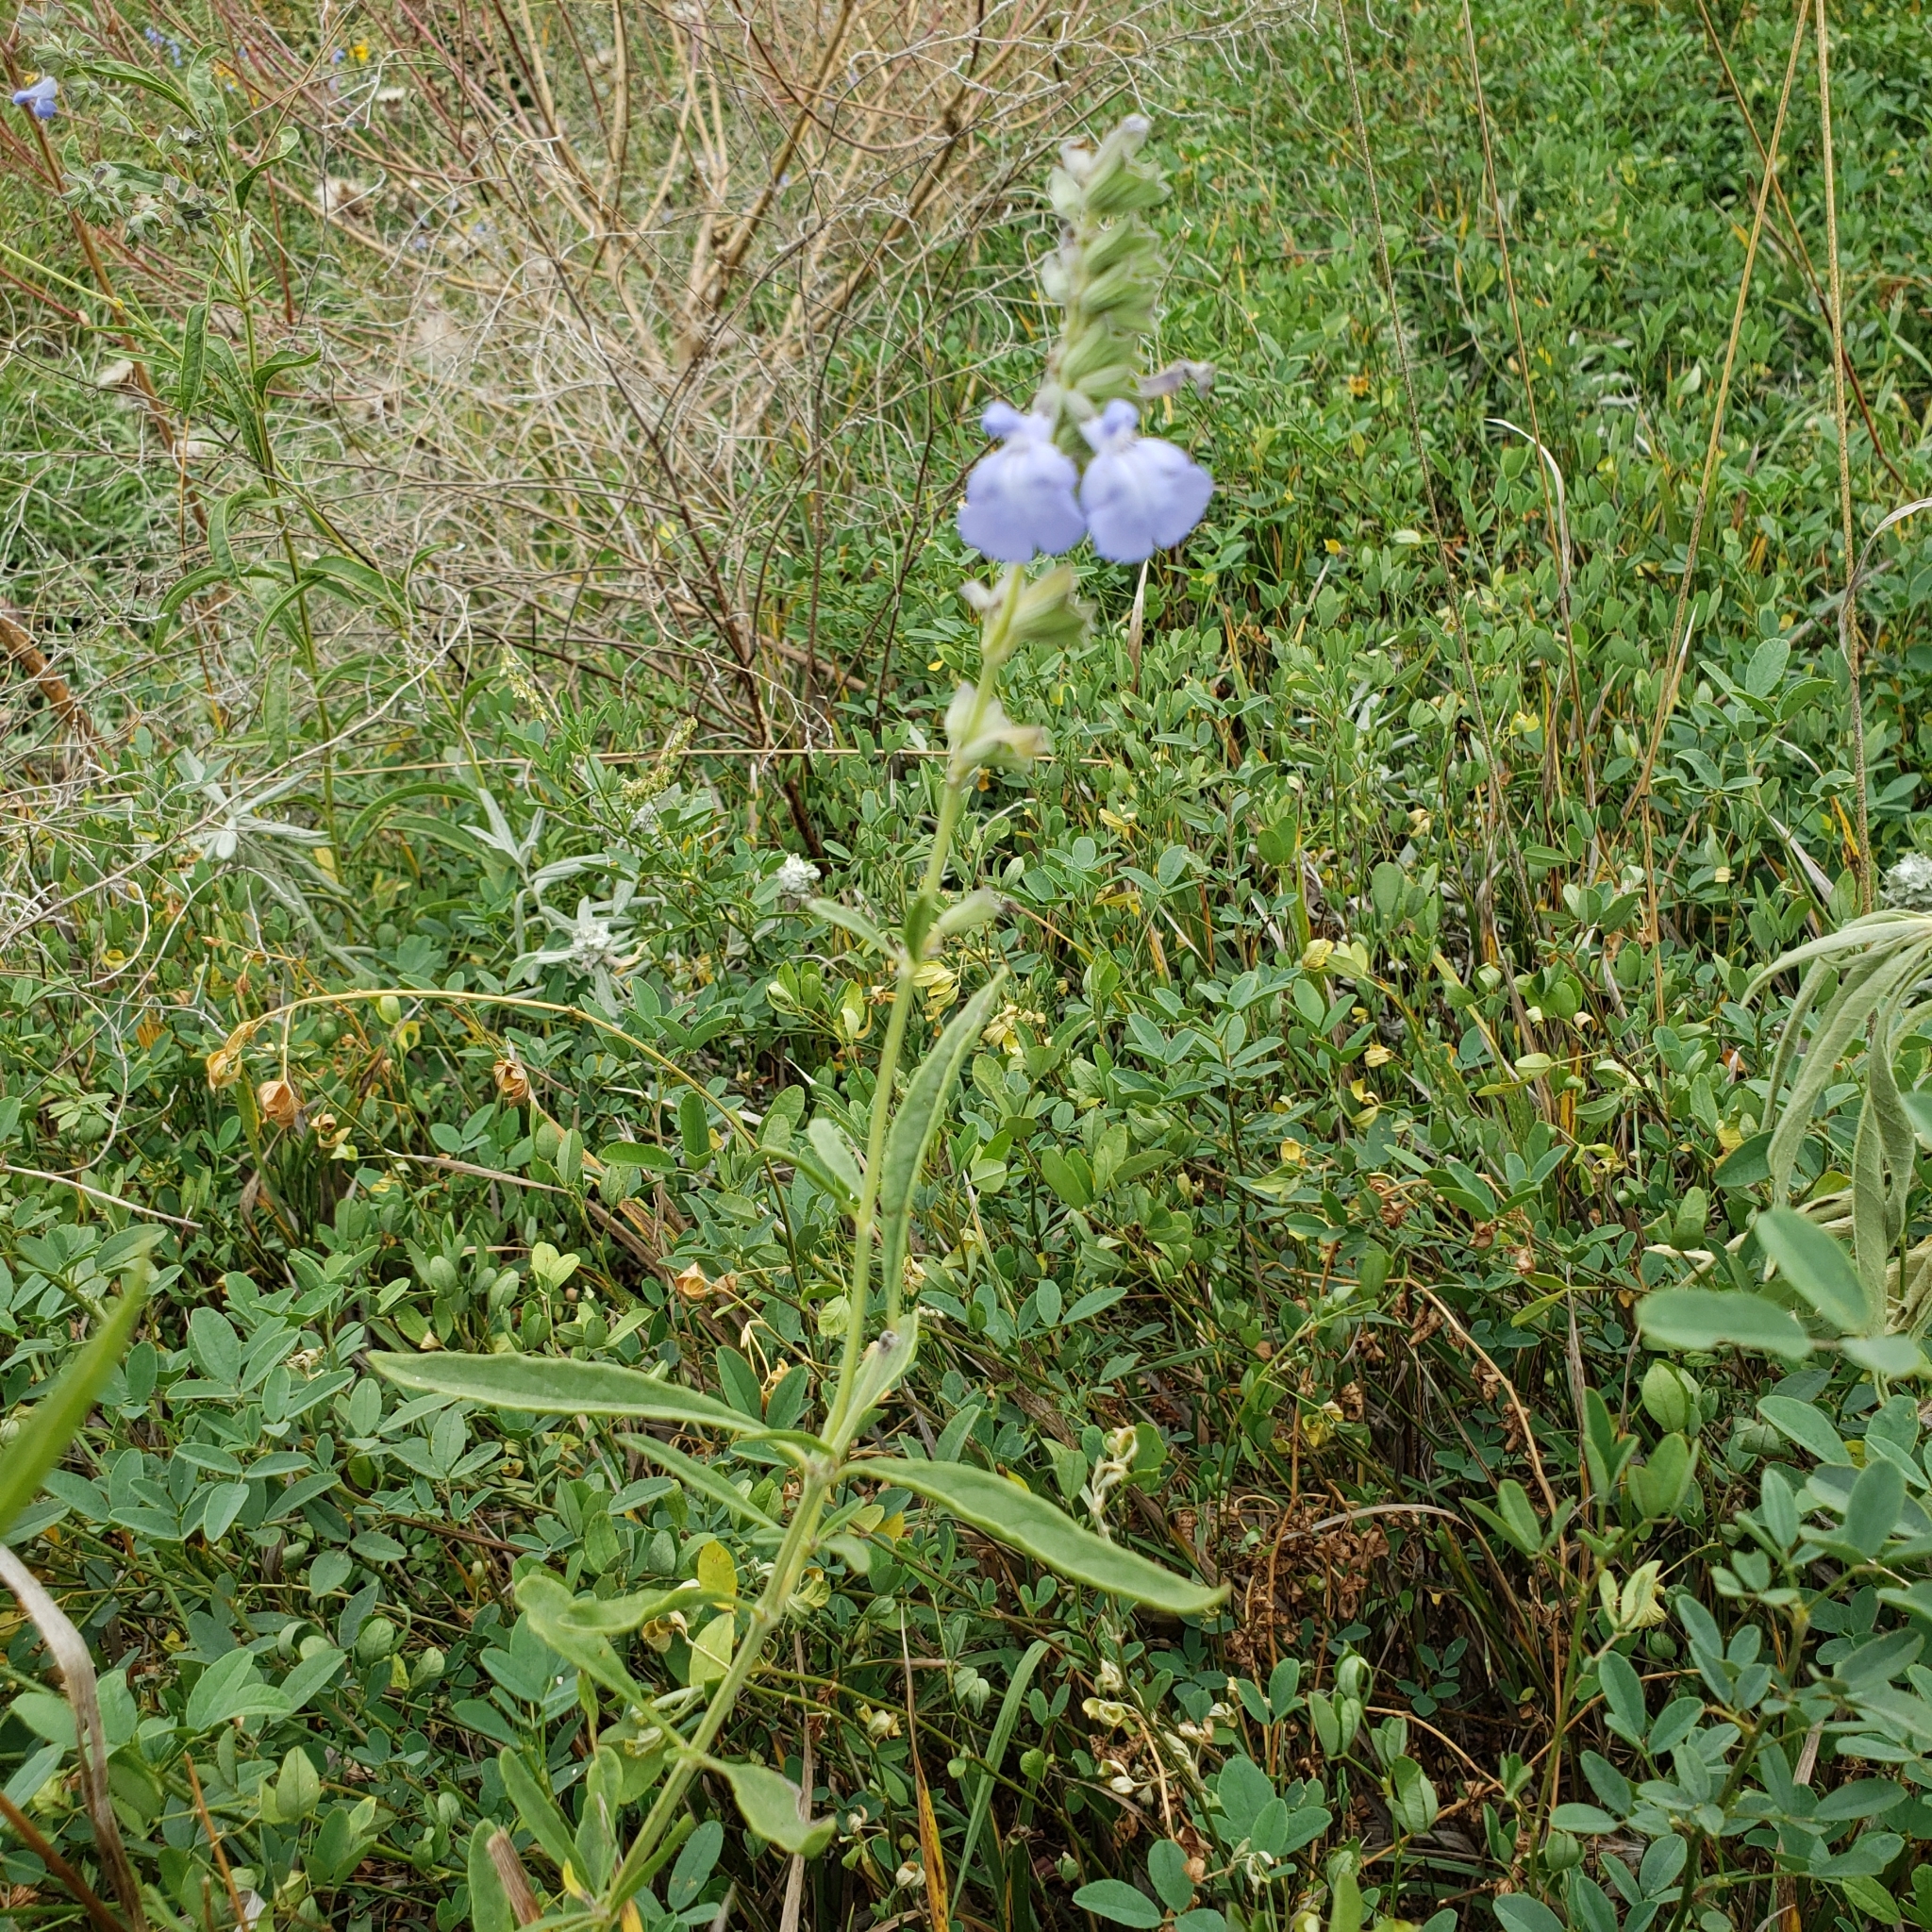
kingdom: Plantae
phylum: Tracheophyta
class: Magnoliopsida
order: Lamiales
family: Lamiaceae
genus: Salvia
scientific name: Salvia azurea
